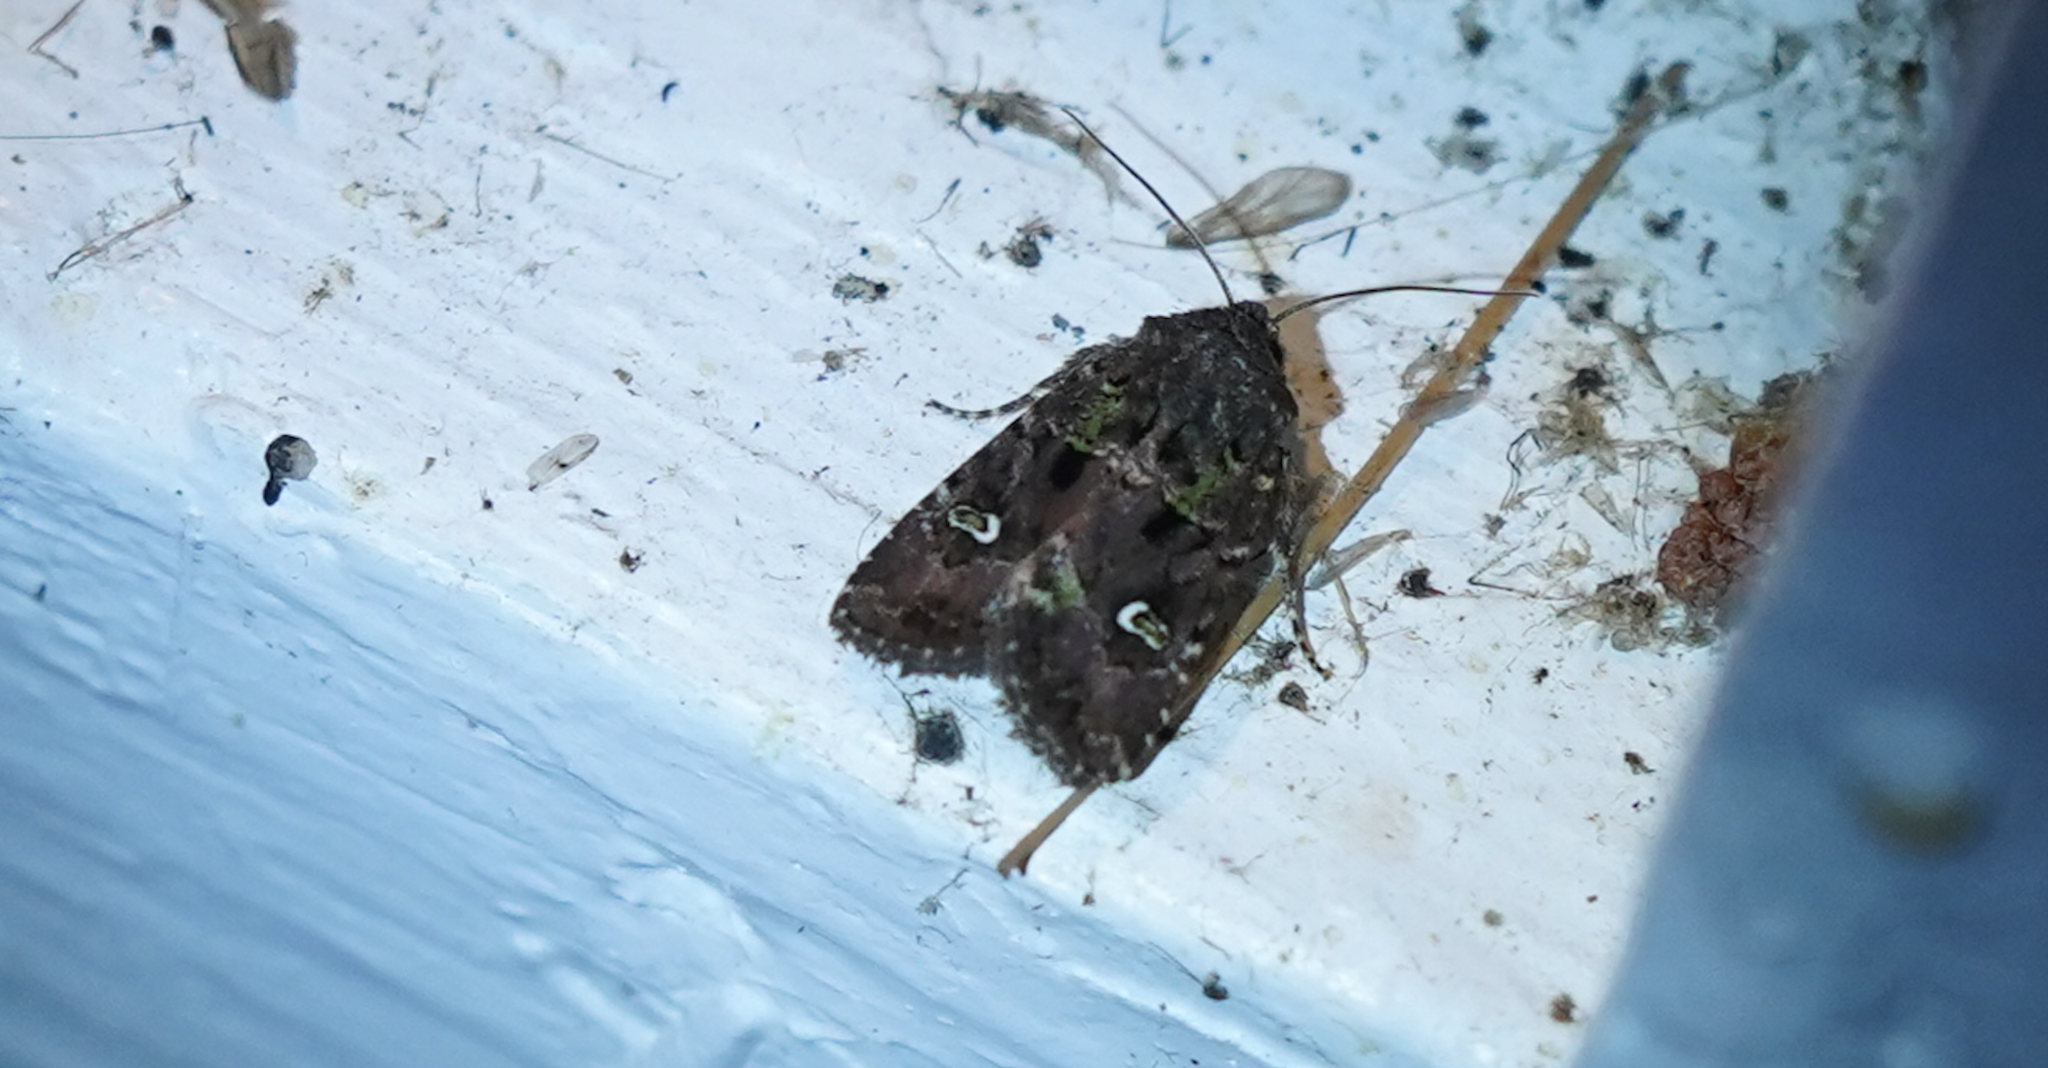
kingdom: Animalia
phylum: Arthropoda
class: Insecta
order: Lepidoptera
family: Noctuidae
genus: Lacinipolia
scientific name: Lacinipolia renigera
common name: Kidney-spotted minor
